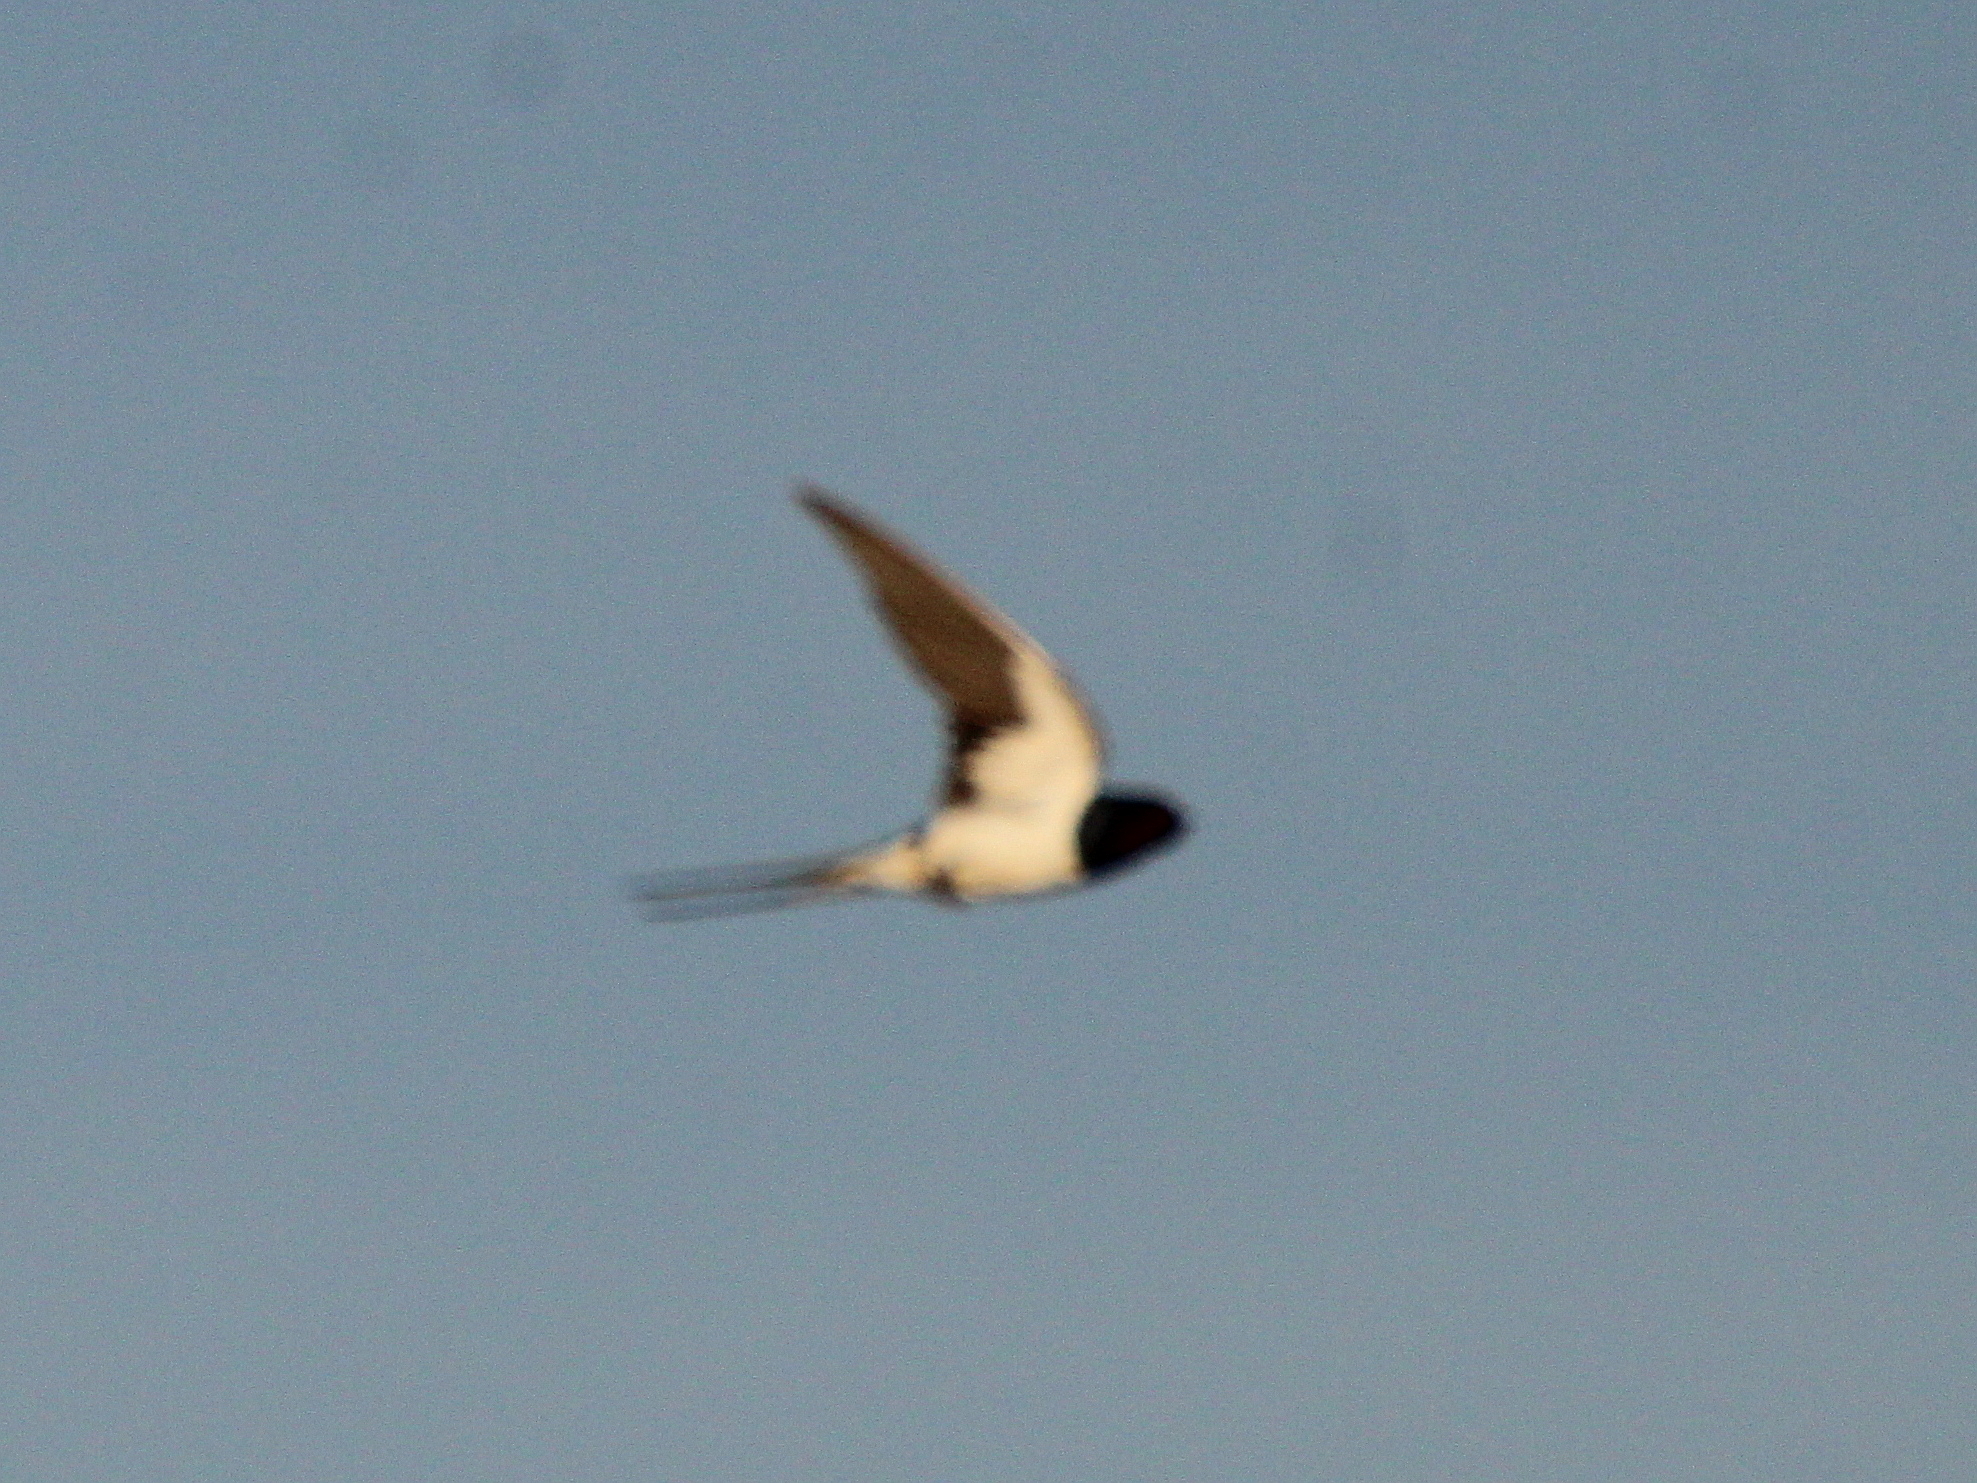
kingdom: Animalia
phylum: Chordata
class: Aves
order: Passeriformes
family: Hirundinidae
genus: Hirundo
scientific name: Hirundo rustica
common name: Barn swallow
